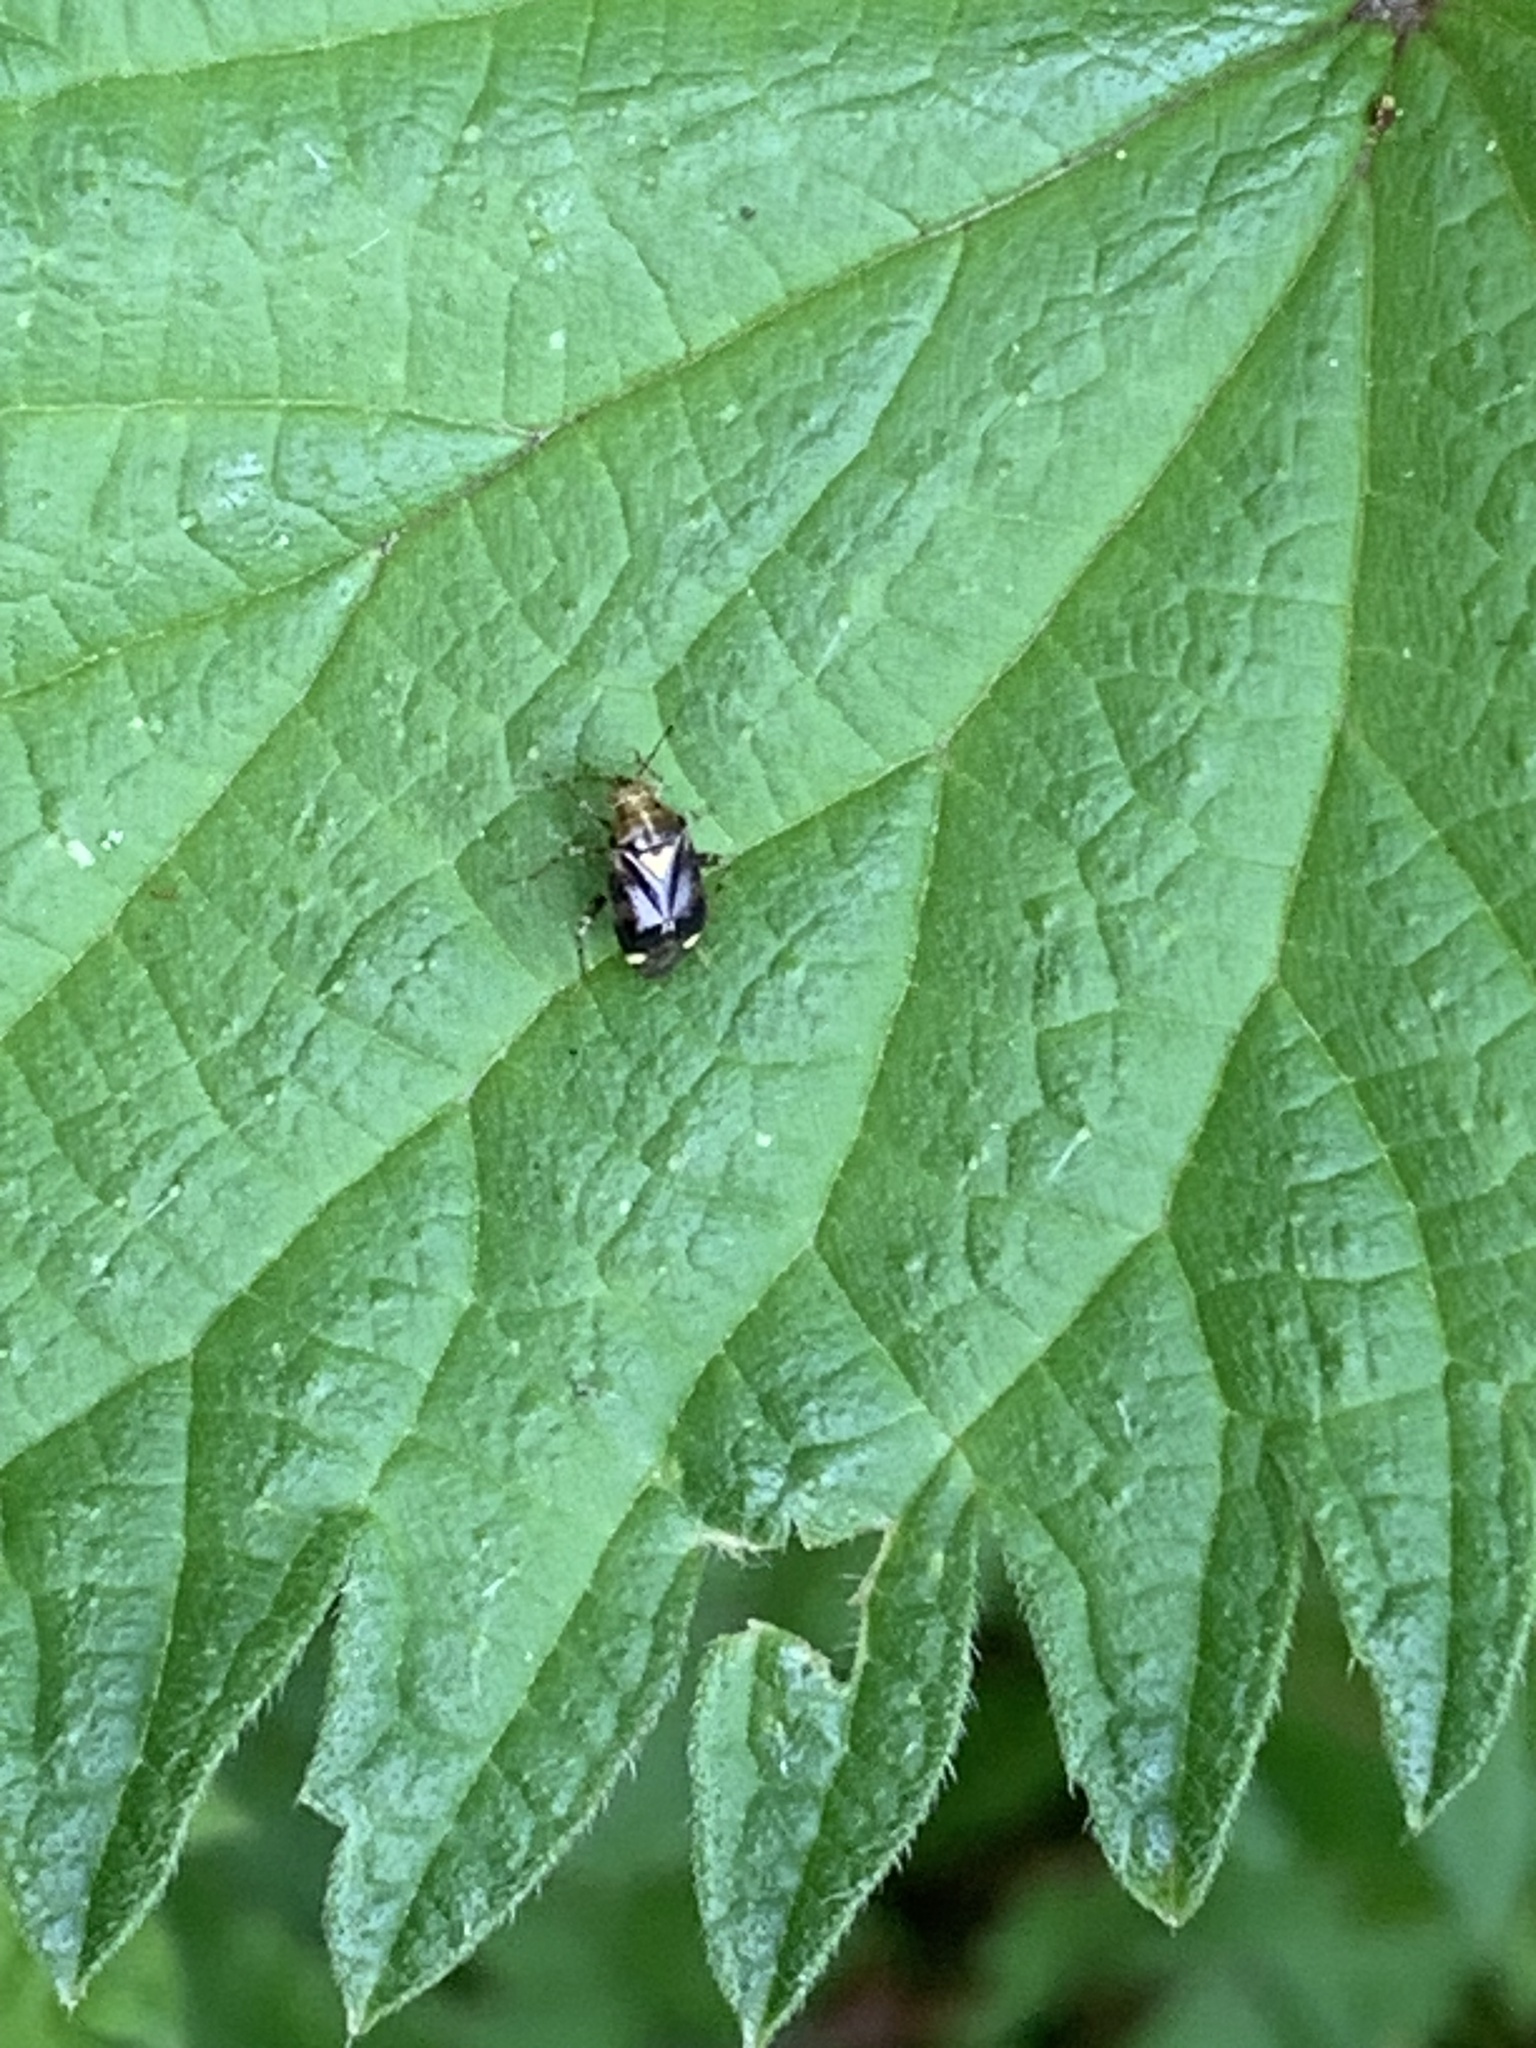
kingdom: Animalia
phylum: Arthropoda
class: Insecta
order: Hemiptera
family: Miridae
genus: Liocoris
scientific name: Liocoris tripustulatus
